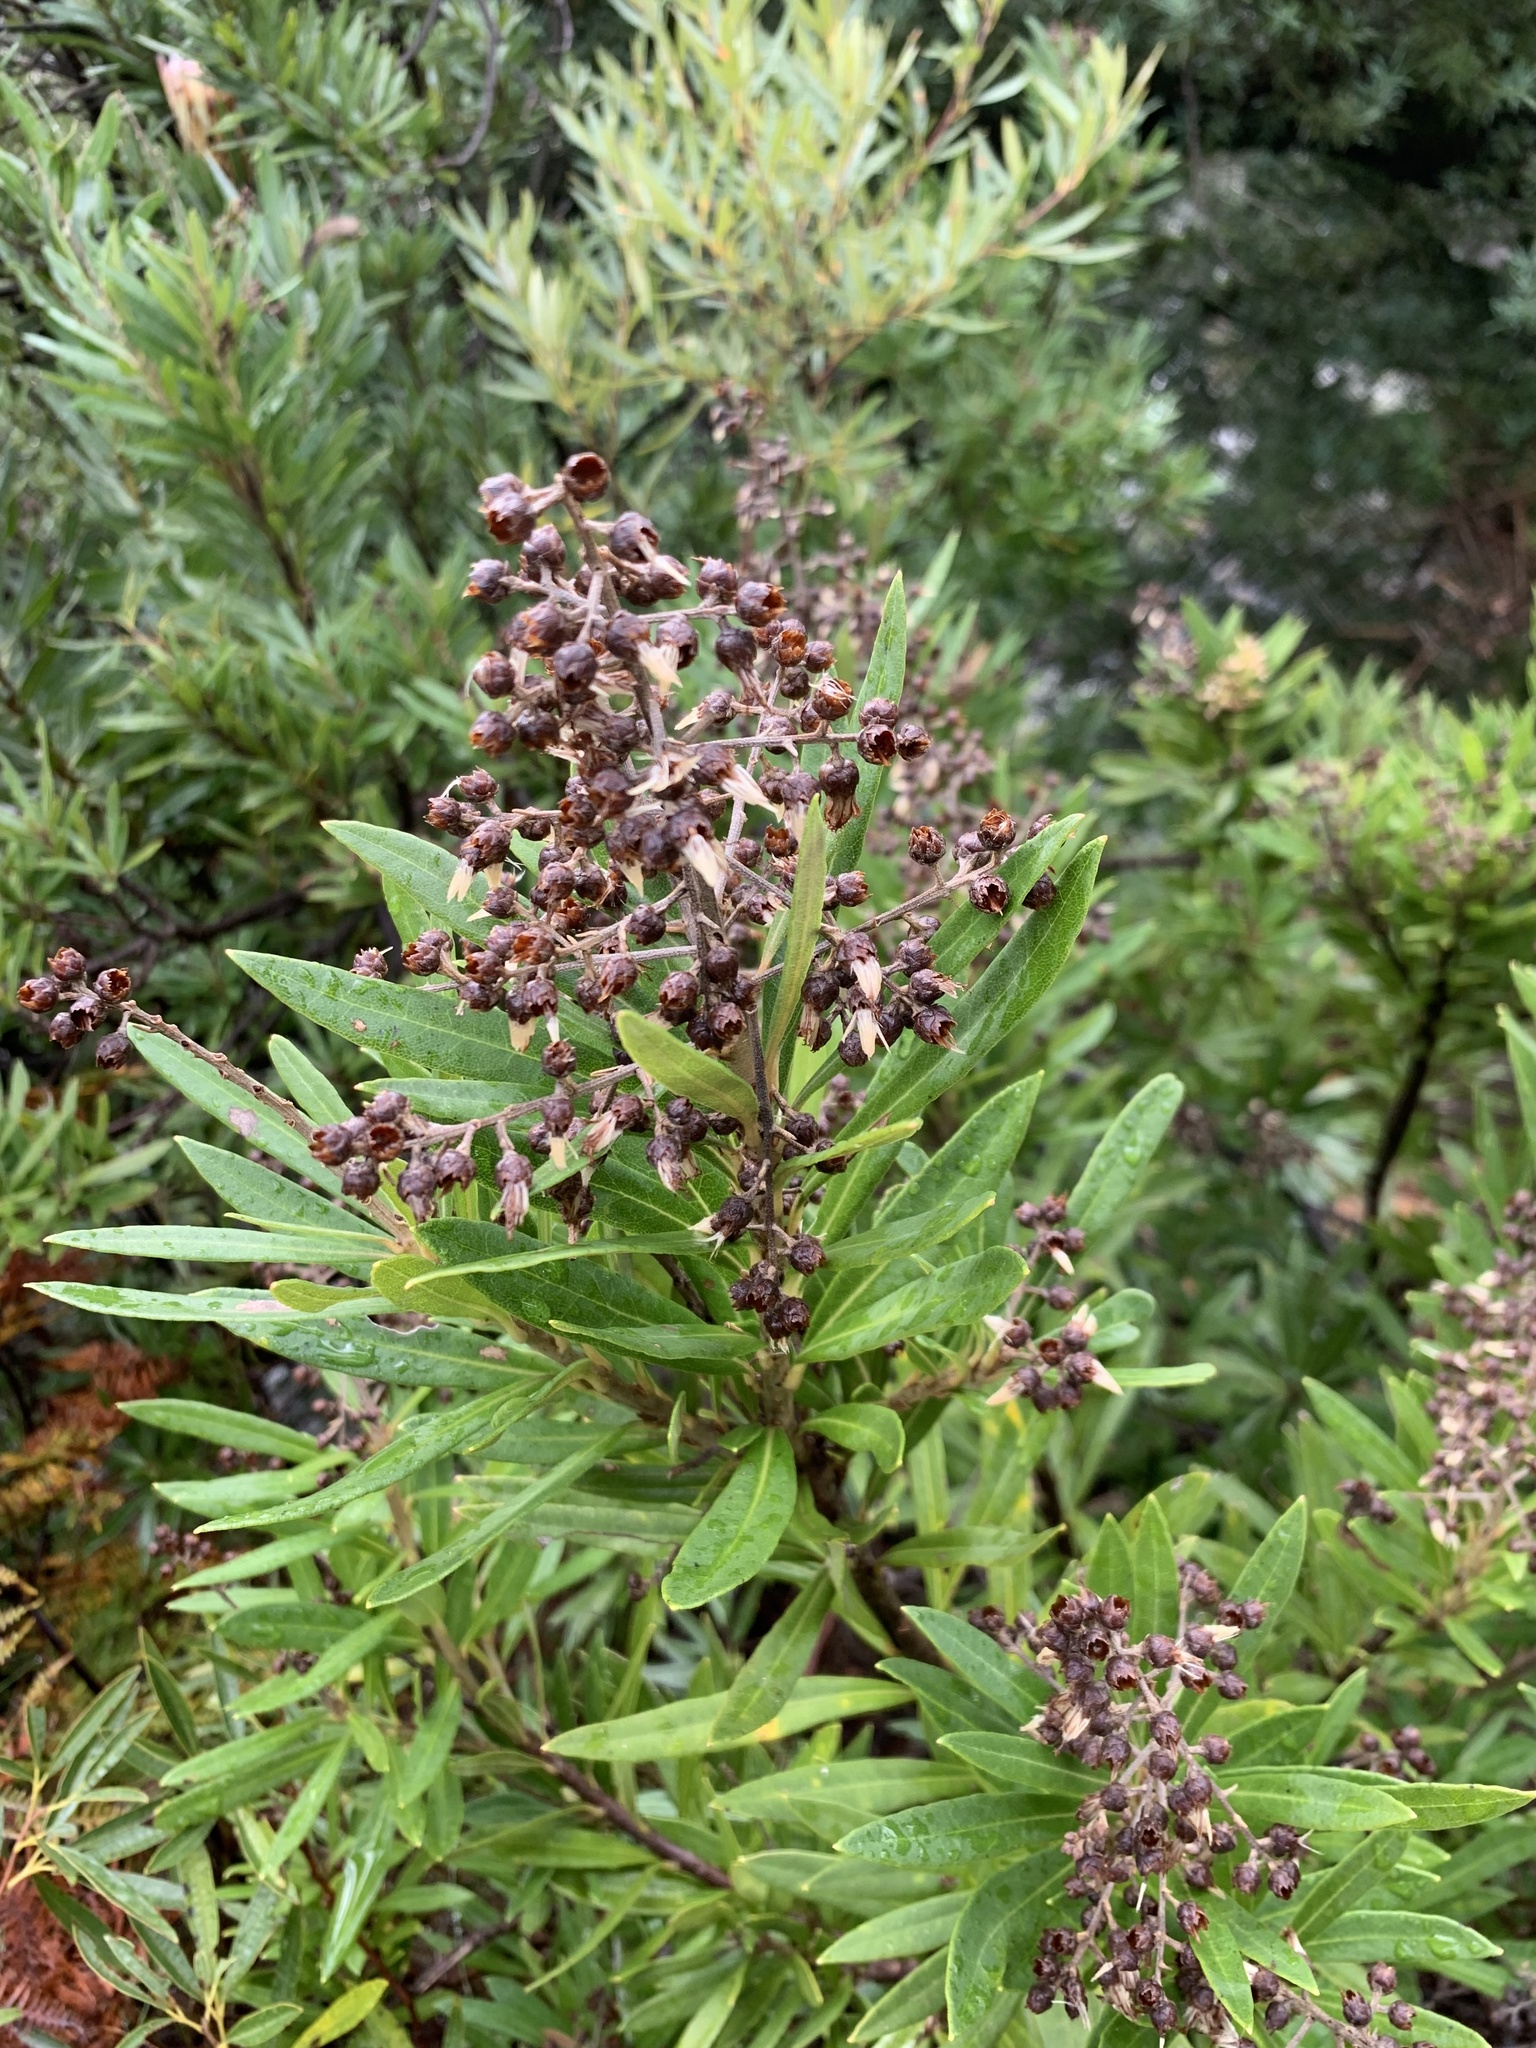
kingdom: Plantae
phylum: Tracheophyta
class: Magnoliopsida
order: Asterales
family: Asteraceae
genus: Brachylaena
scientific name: Brachylaena neriifolia
